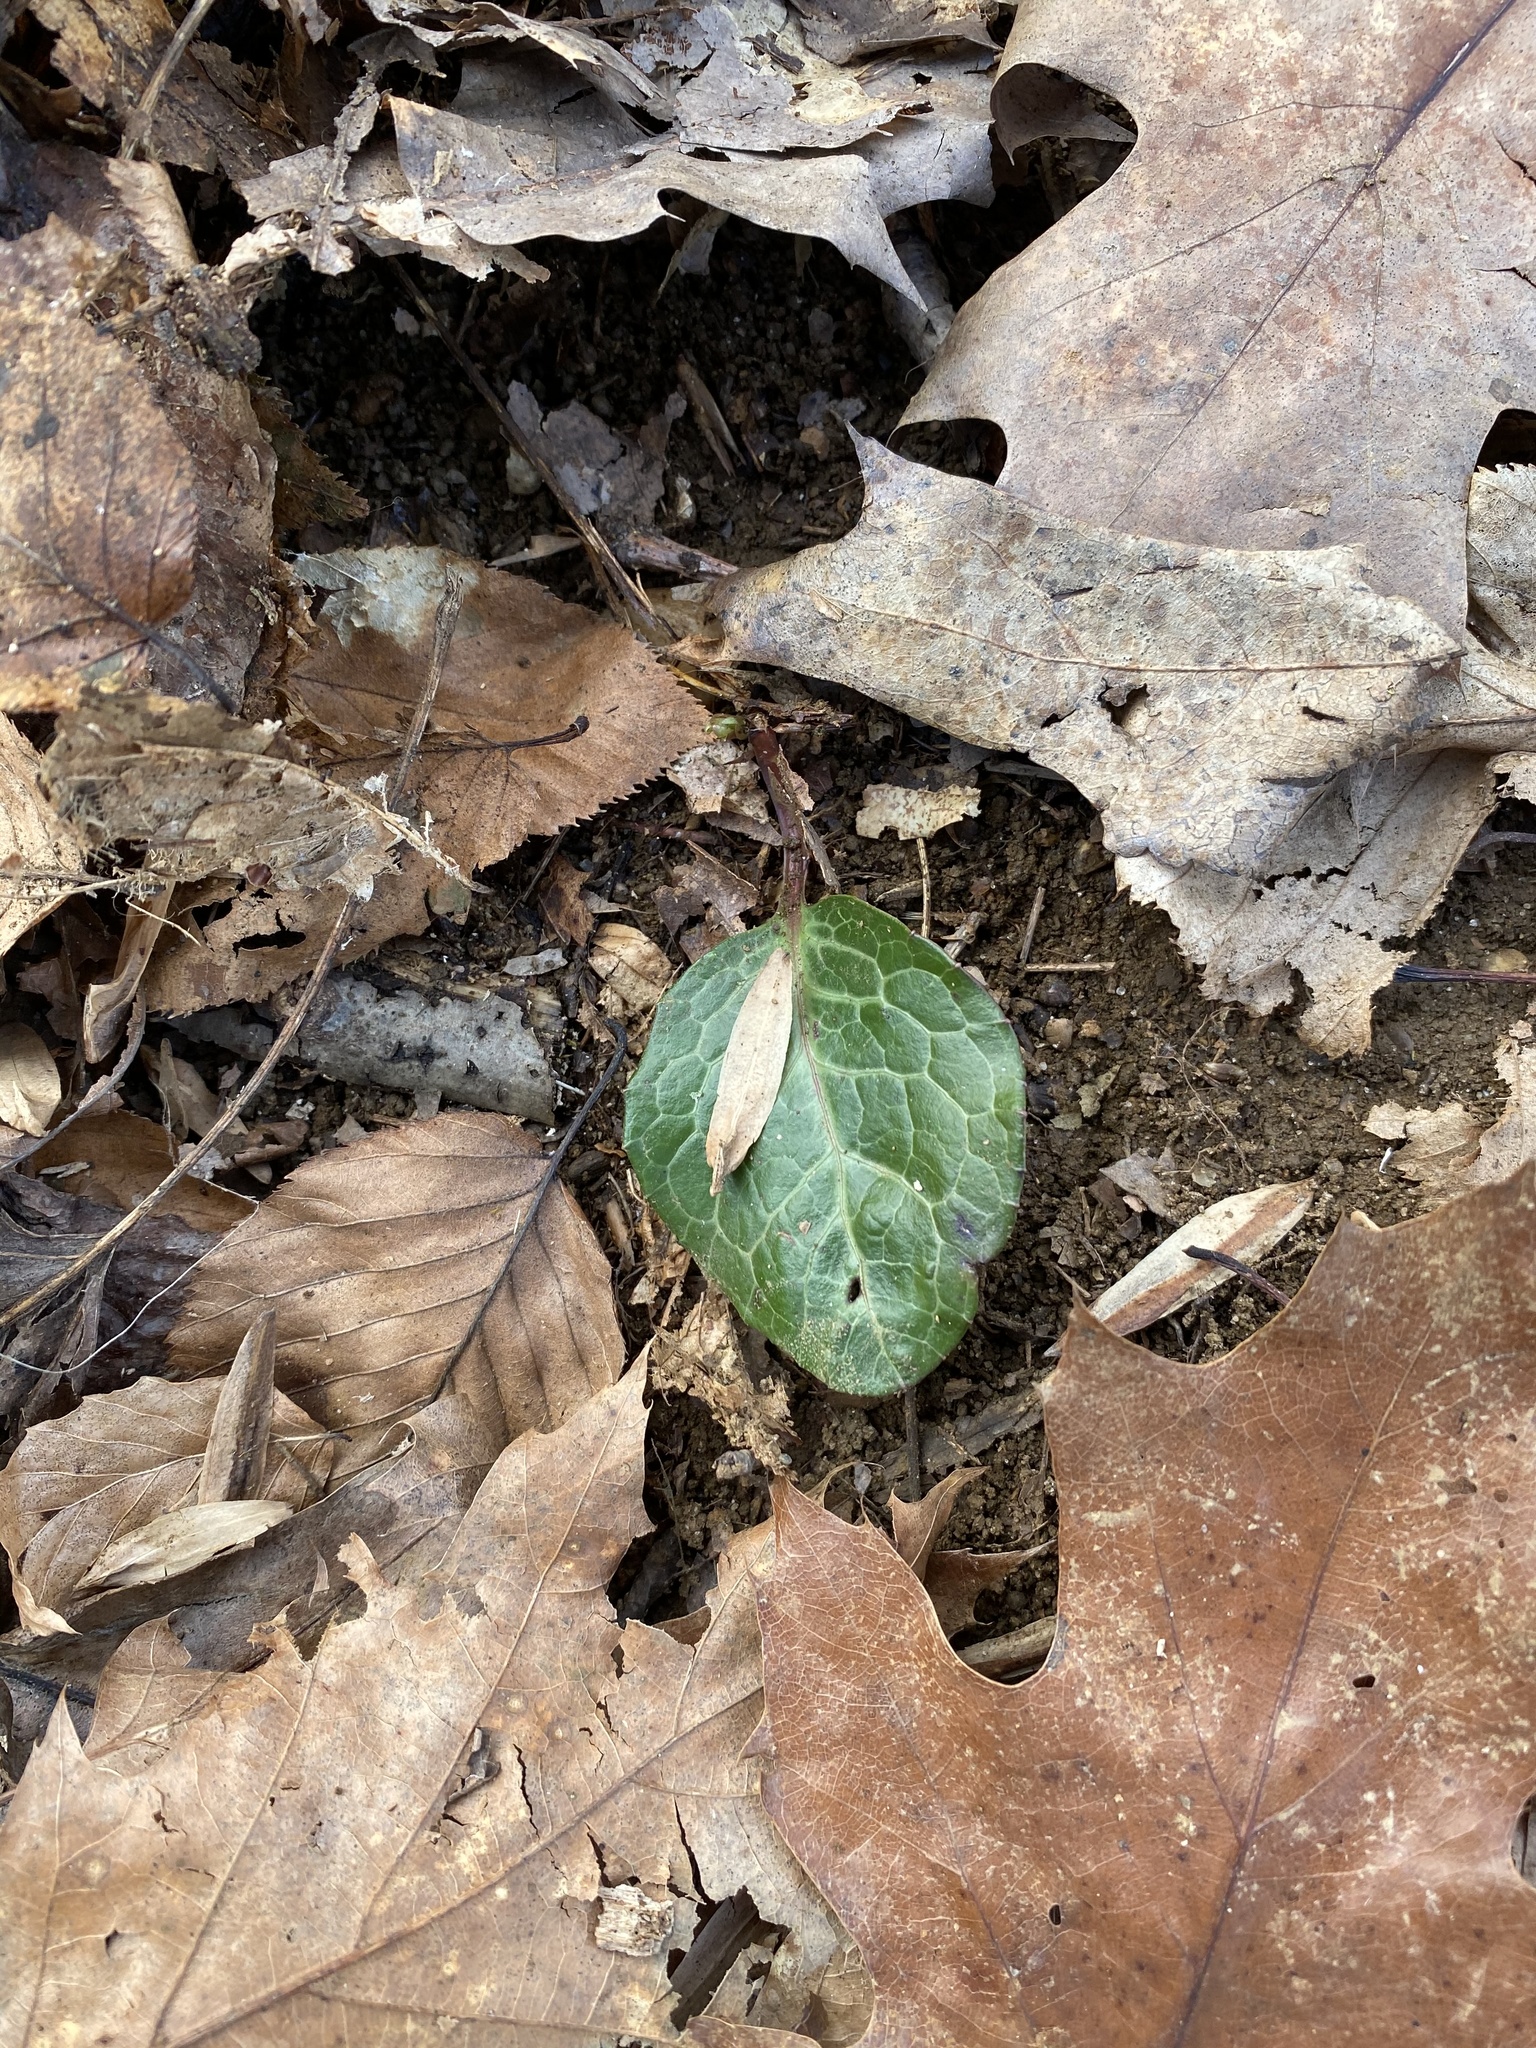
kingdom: Plantae
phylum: Tracheophyta
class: Magnoliopsida
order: Ericales
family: Ericaceae
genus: Pyrola
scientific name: Pyrola americana
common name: American wintergreen
